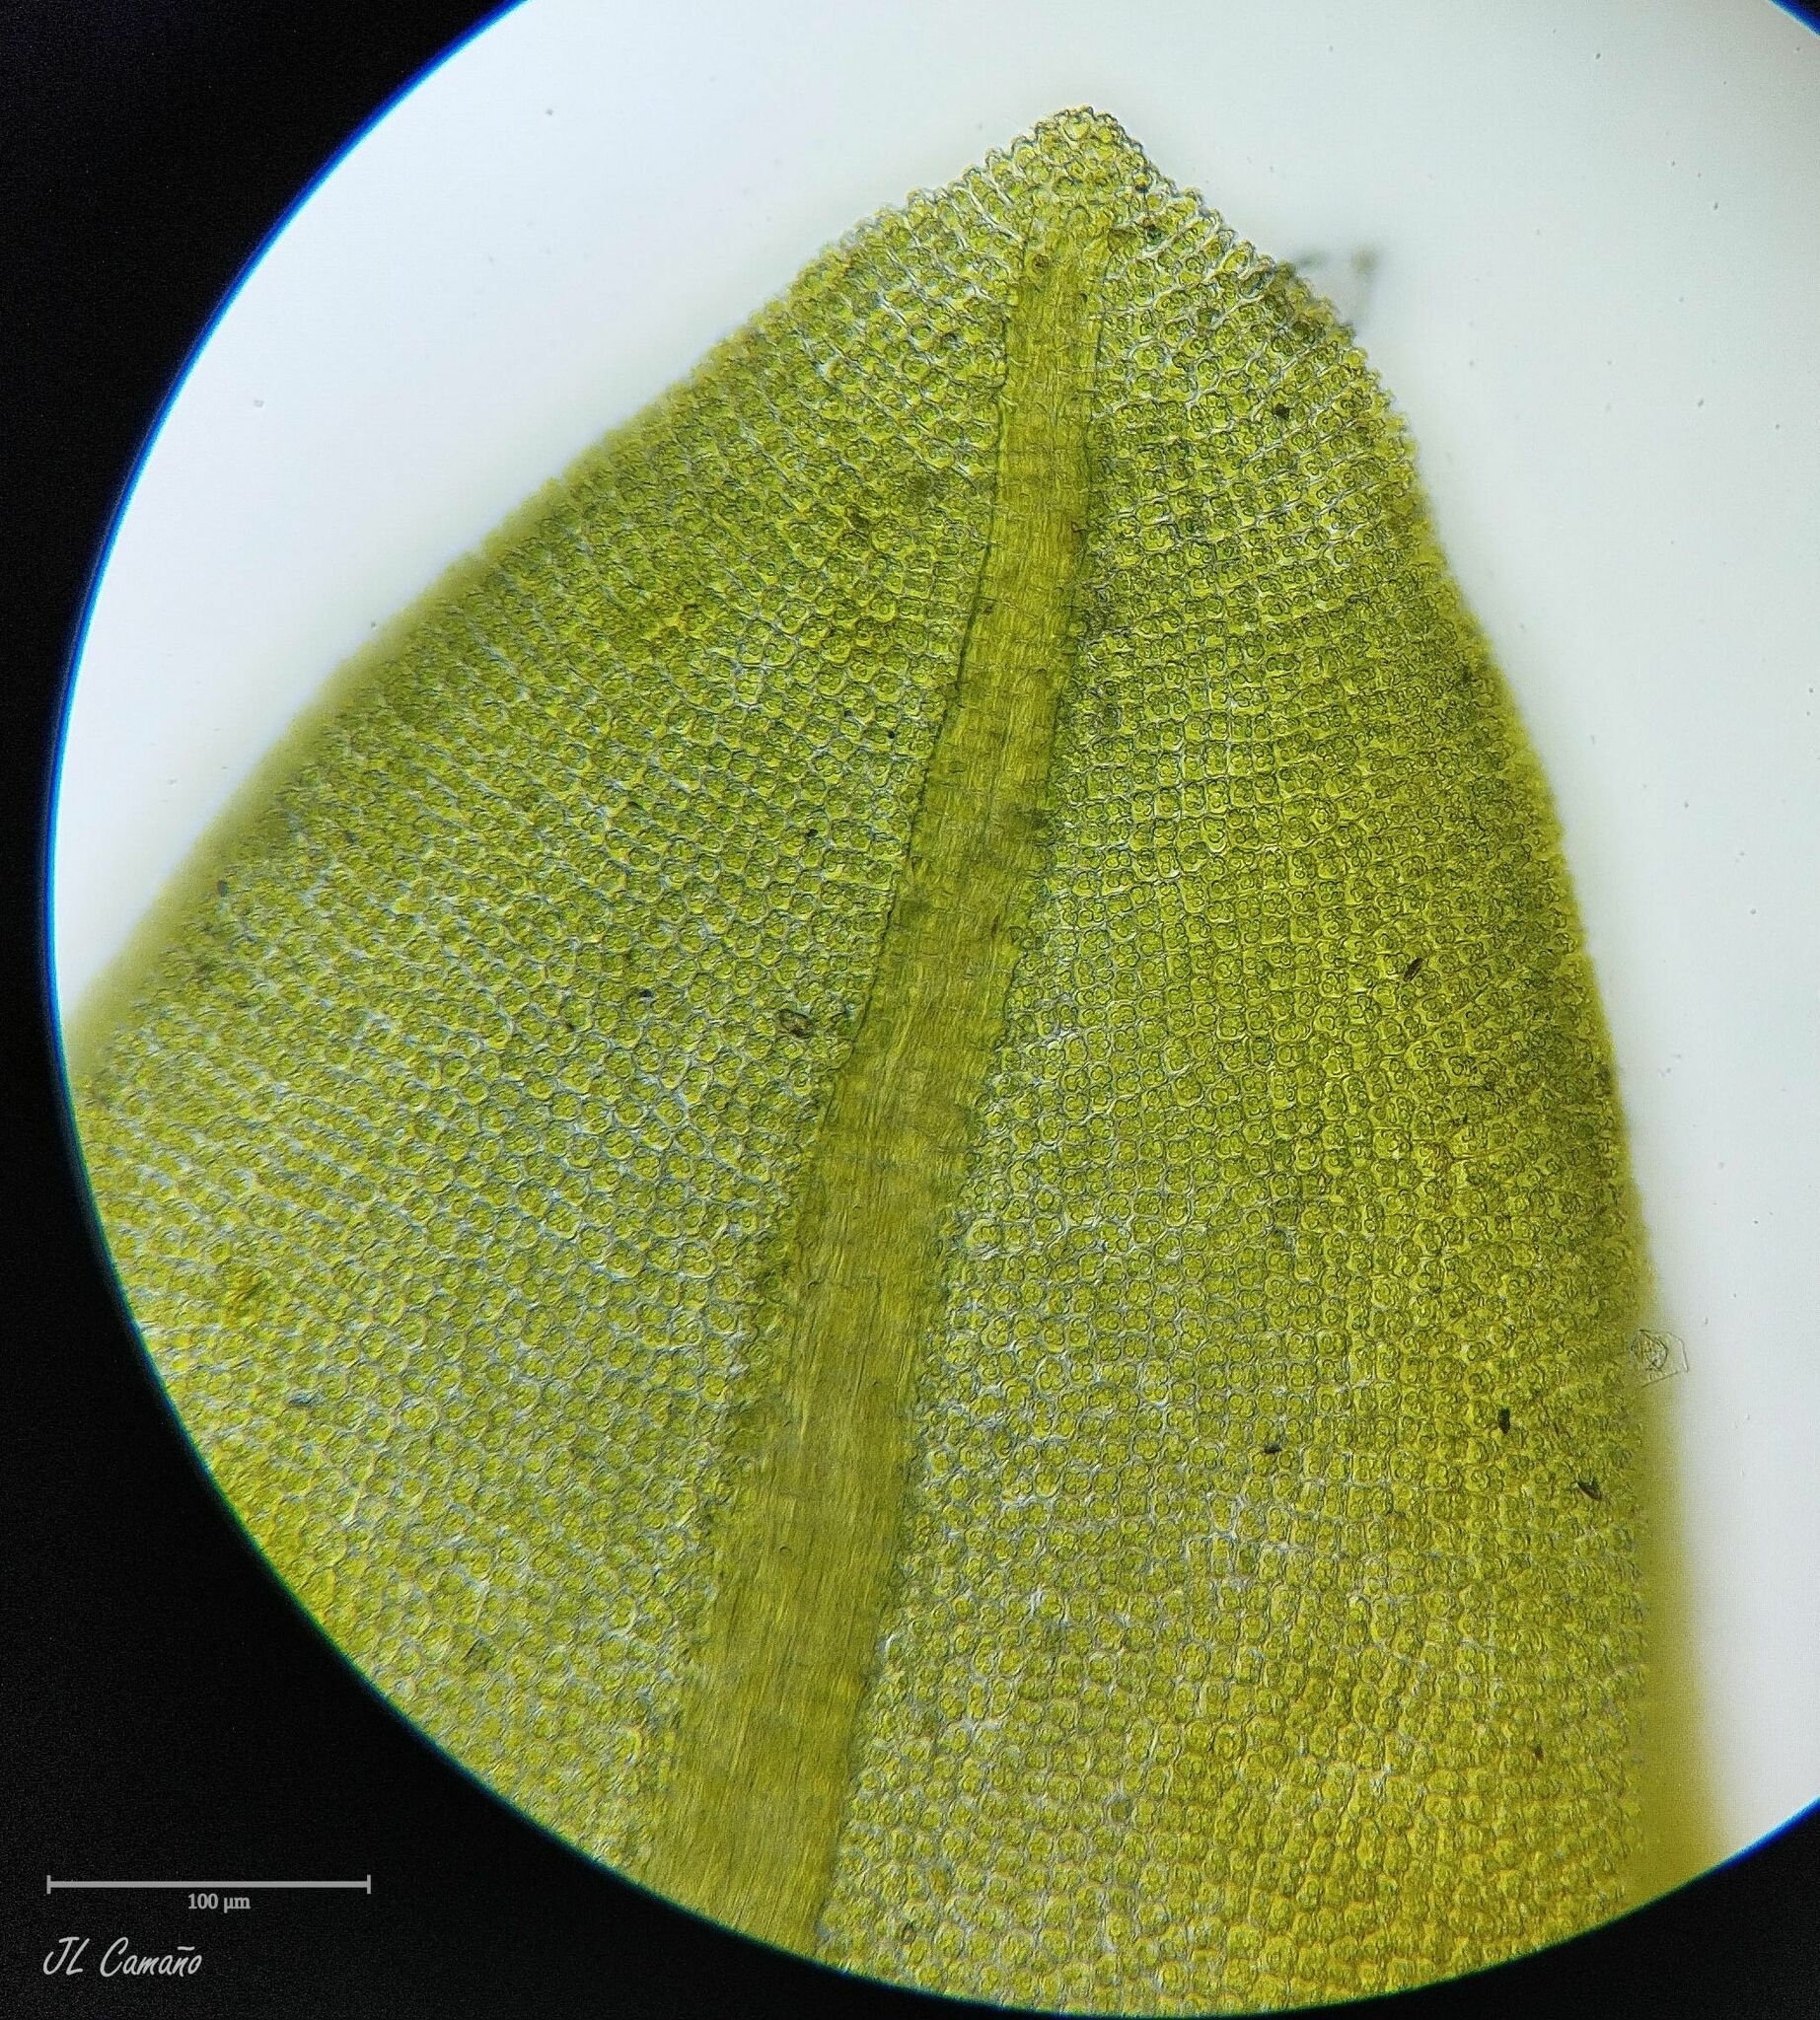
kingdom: Plantae
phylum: Bryophyta
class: Bryopsida
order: Encalyptales
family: Encalyptaceae
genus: Encalypta
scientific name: Encalypta vulgaris
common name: Common extinguisher-moss
